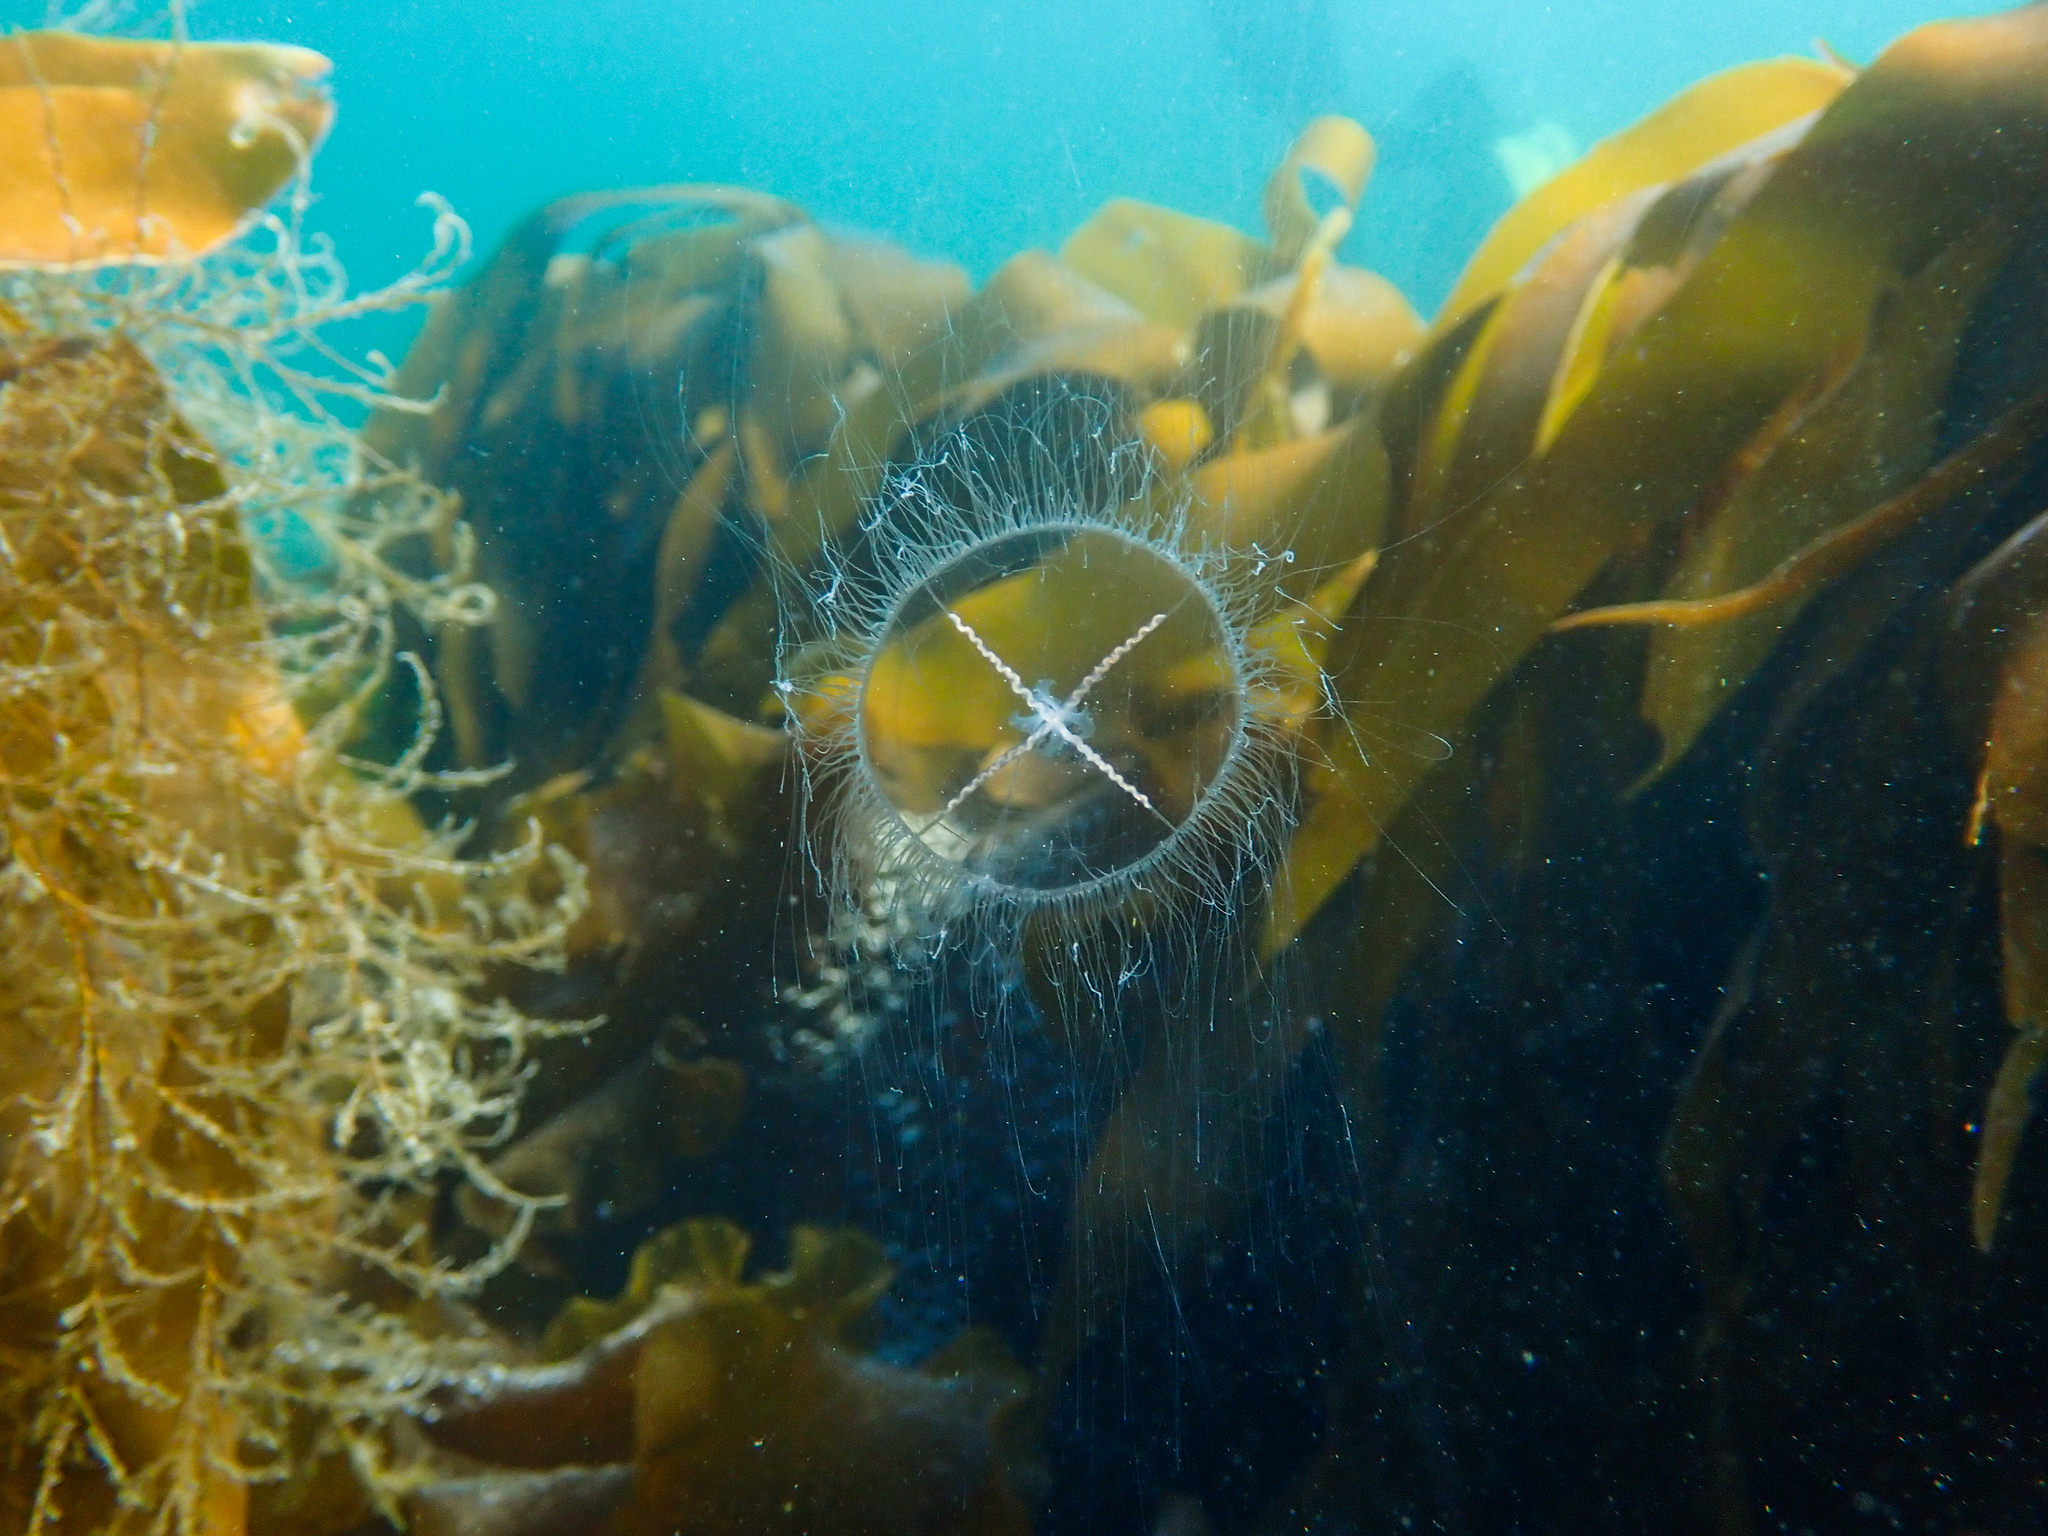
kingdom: Animalia
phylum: Cnidaria
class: Hydrozoa
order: Leptothecata
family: Laodiceidae
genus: Laodicea
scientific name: Laodicea undulata
